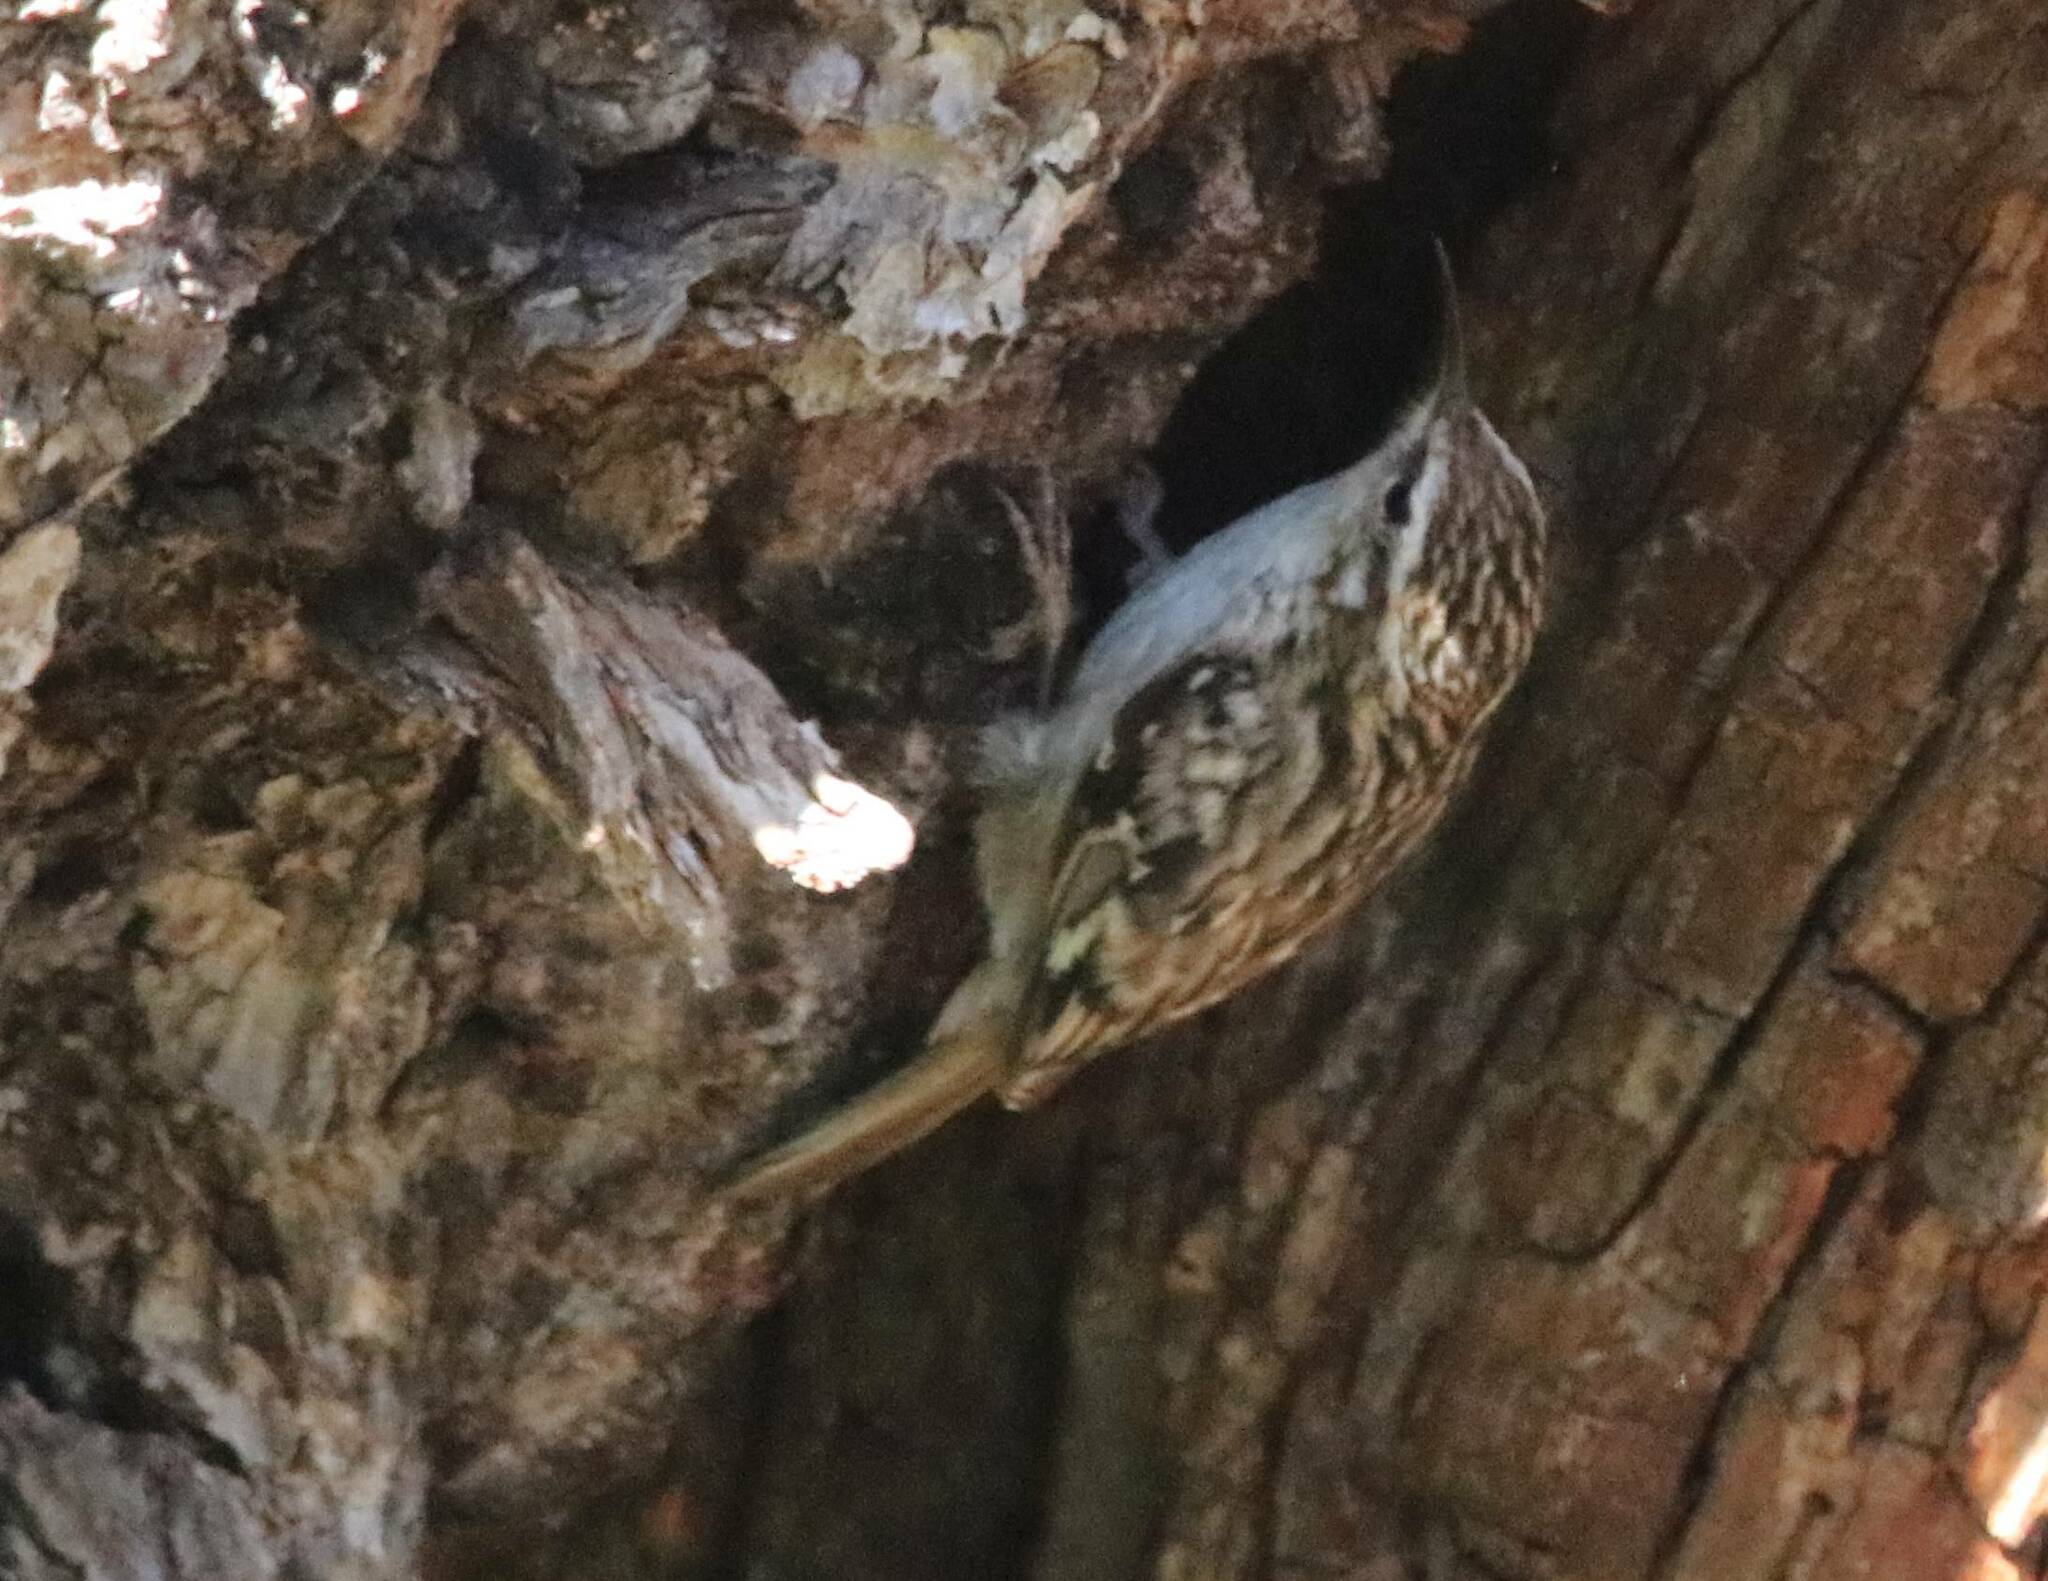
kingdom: Animalia
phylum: Chordata
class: Aves
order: Passeriformes
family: Certhiidae
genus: Certhia
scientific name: Certhia brachydactyla
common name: Short-toed treecreeper
